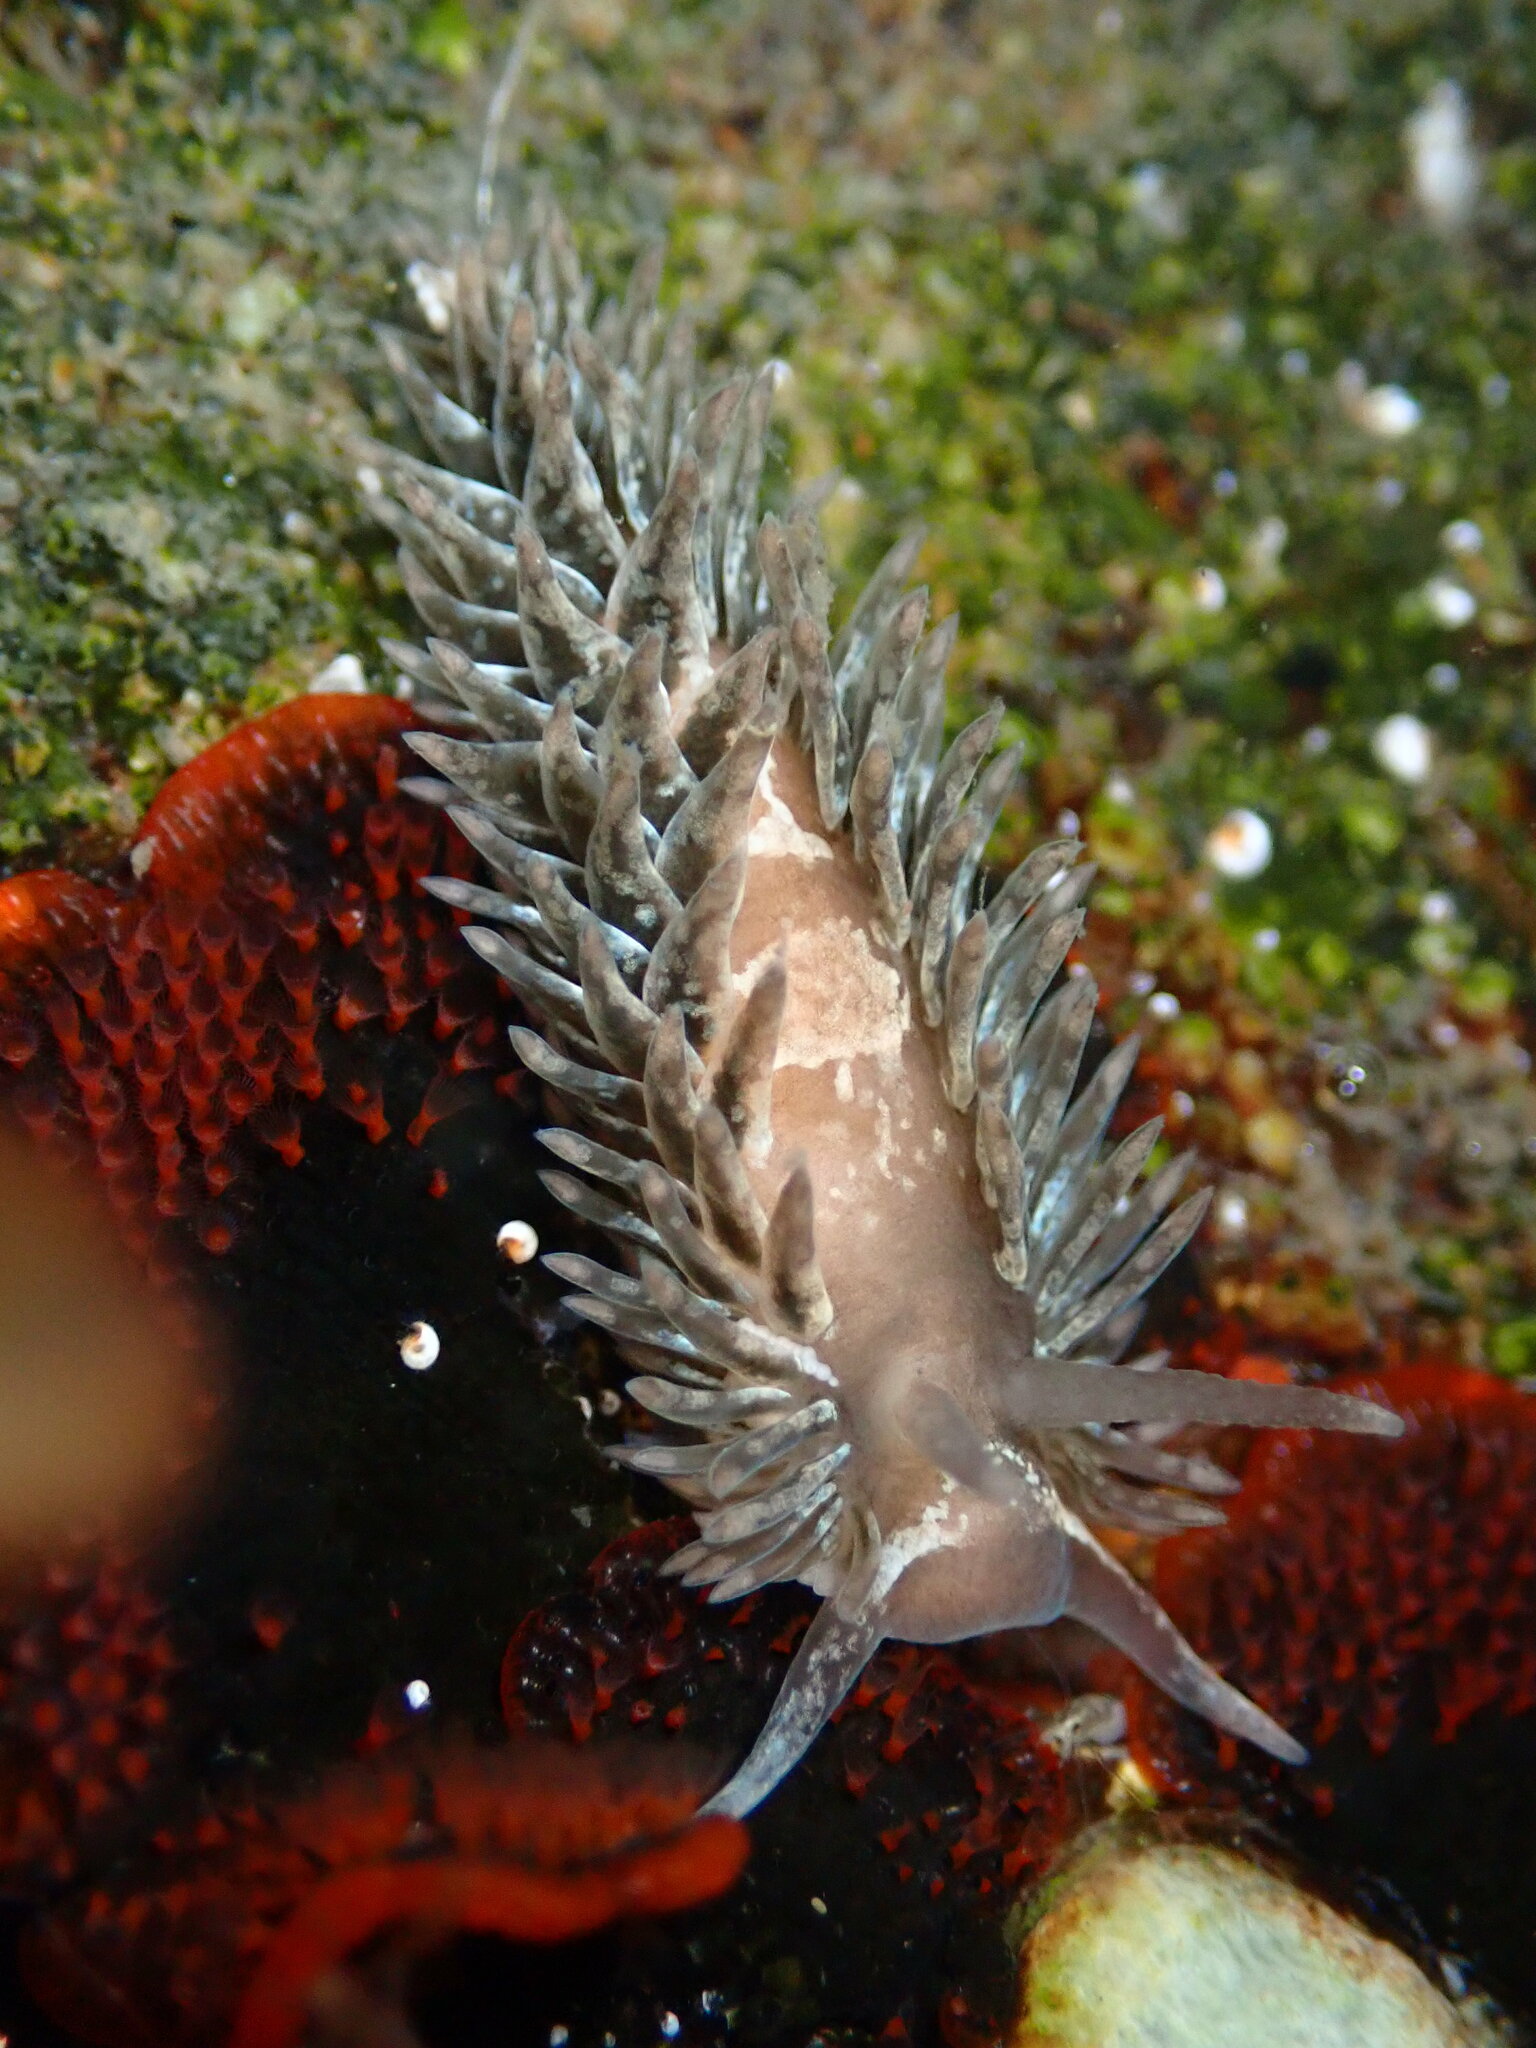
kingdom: Animalia
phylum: Mollusca
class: Gastropoda
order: Nudibranchia
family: Aeolidiidae
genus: Aeolidia
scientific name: Aeolidia loui
